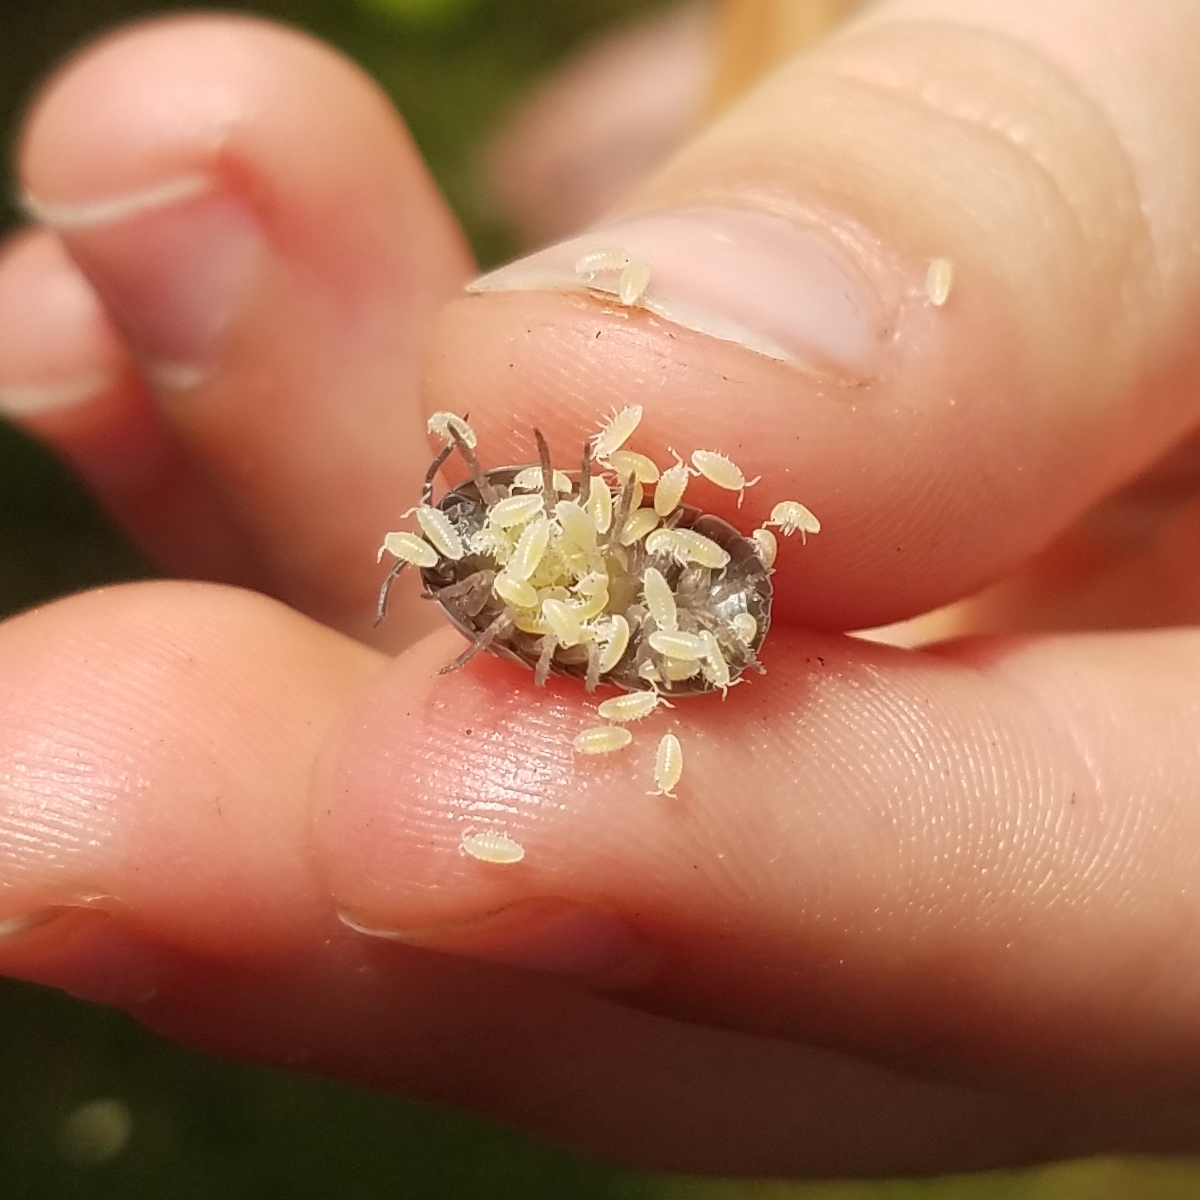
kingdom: Animalia
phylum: Arthropoda
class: Malacostraca
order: Isopoda
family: Armadillidiidae
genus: Armadillidium
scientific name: Armadillidium vulgare
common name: Common pill woodlouse
